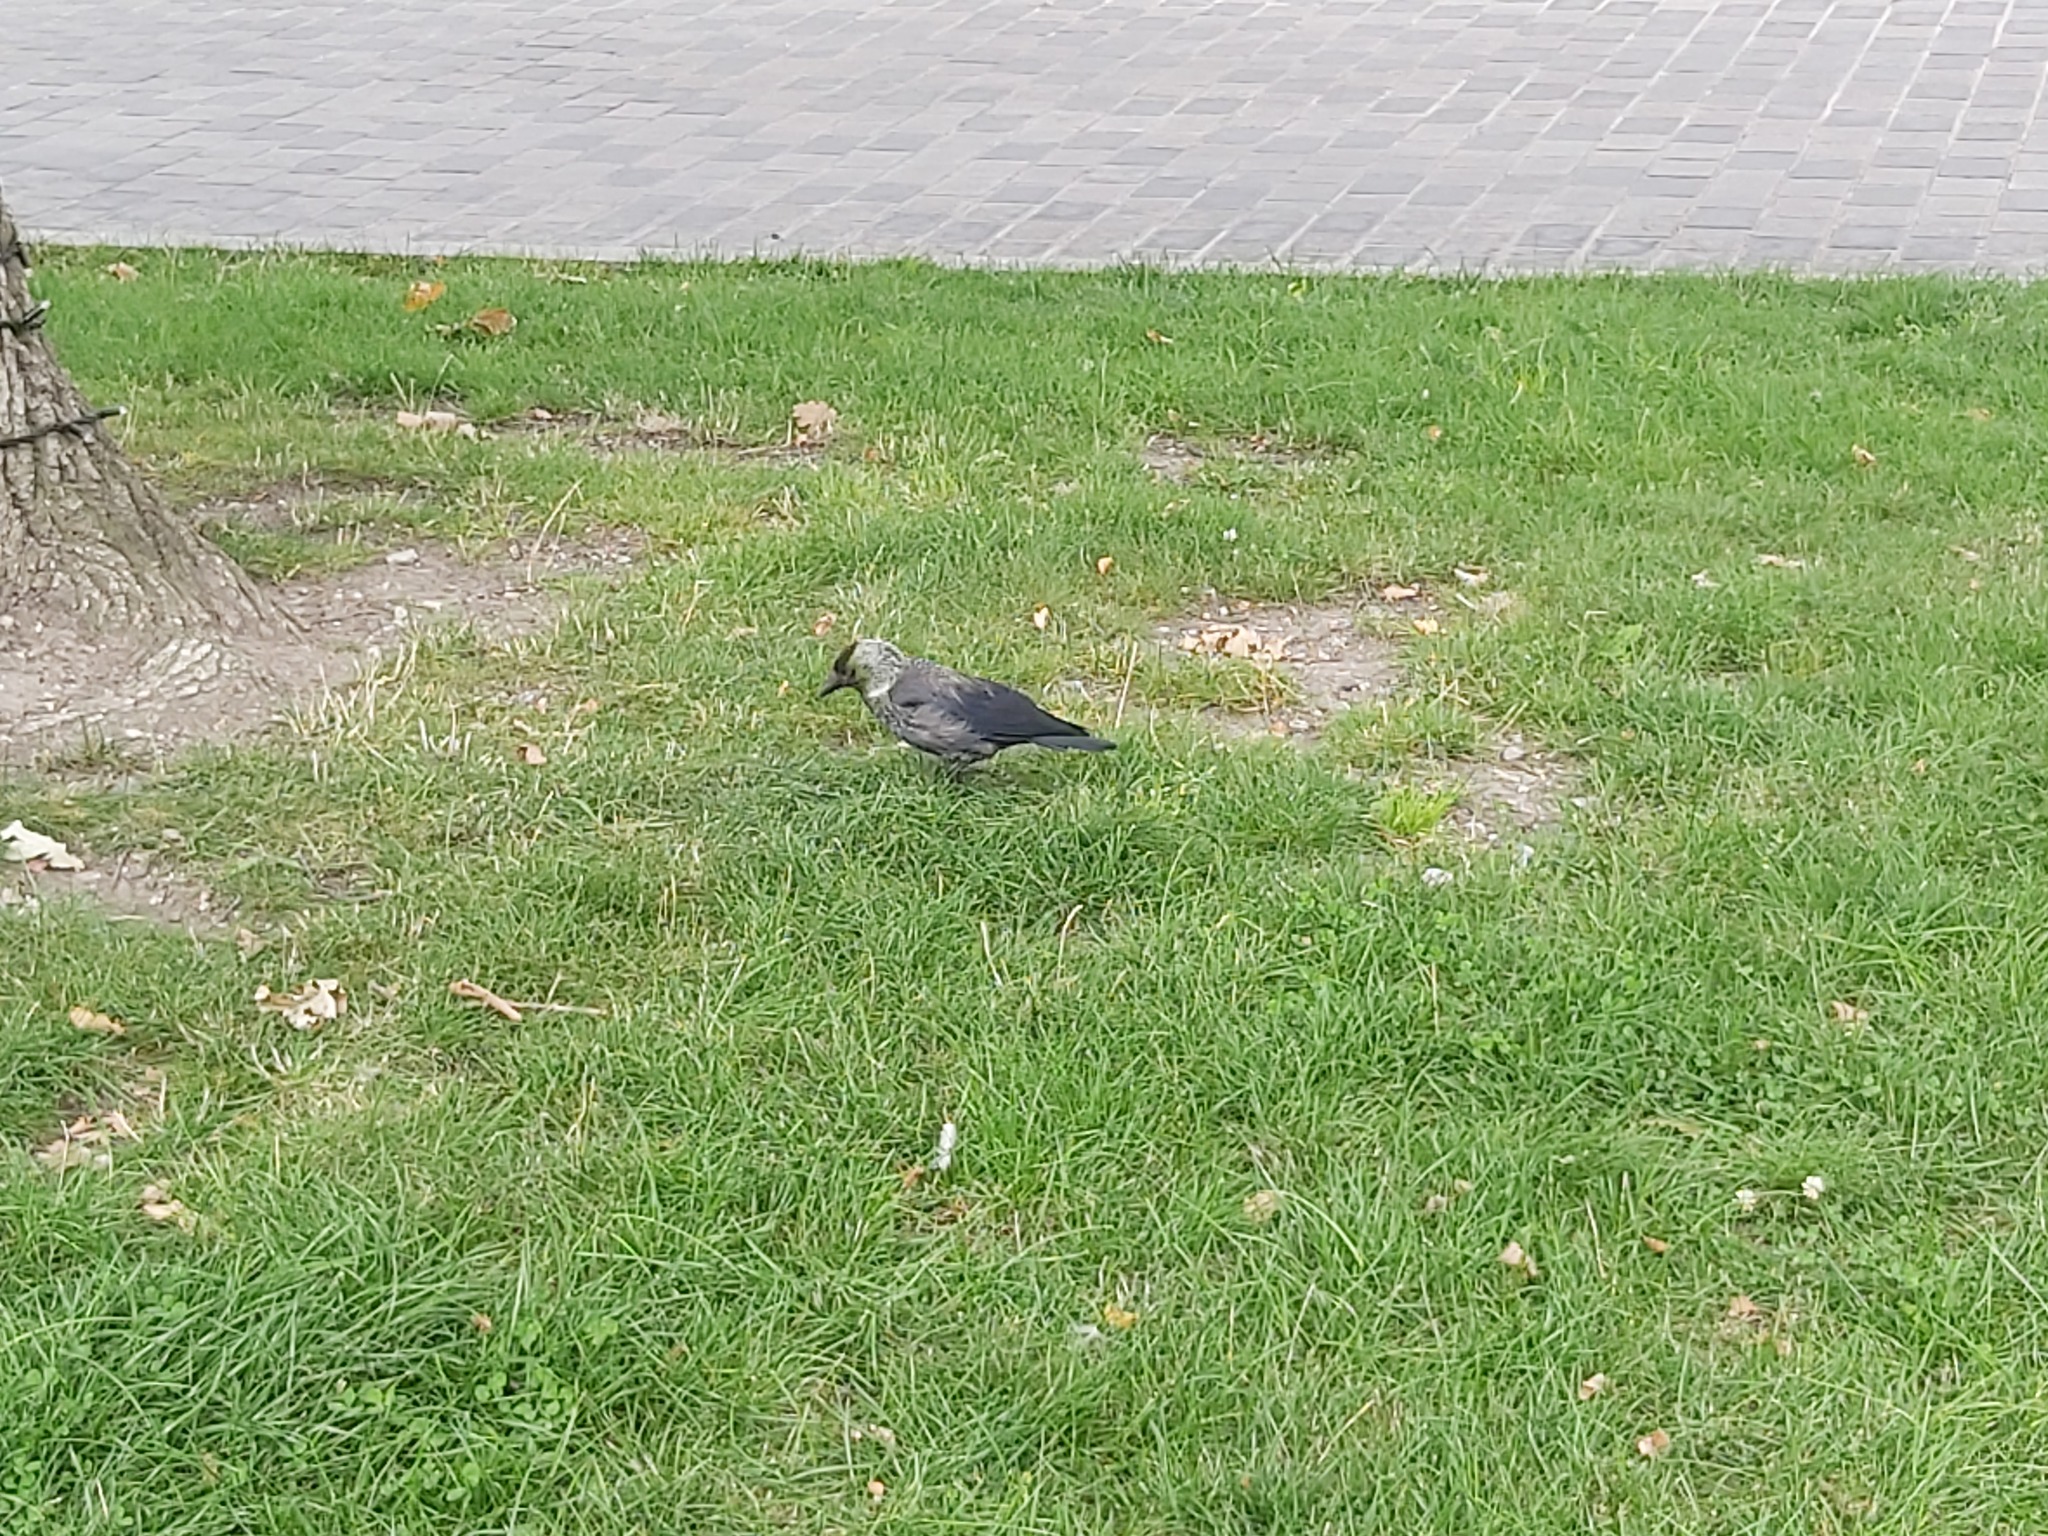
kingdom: Animalia
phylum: Chordata
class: Aves
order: Passeriformes
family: Corvidae
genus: Coloeus
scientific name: Coloeus monedula
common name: Western jackdaw
